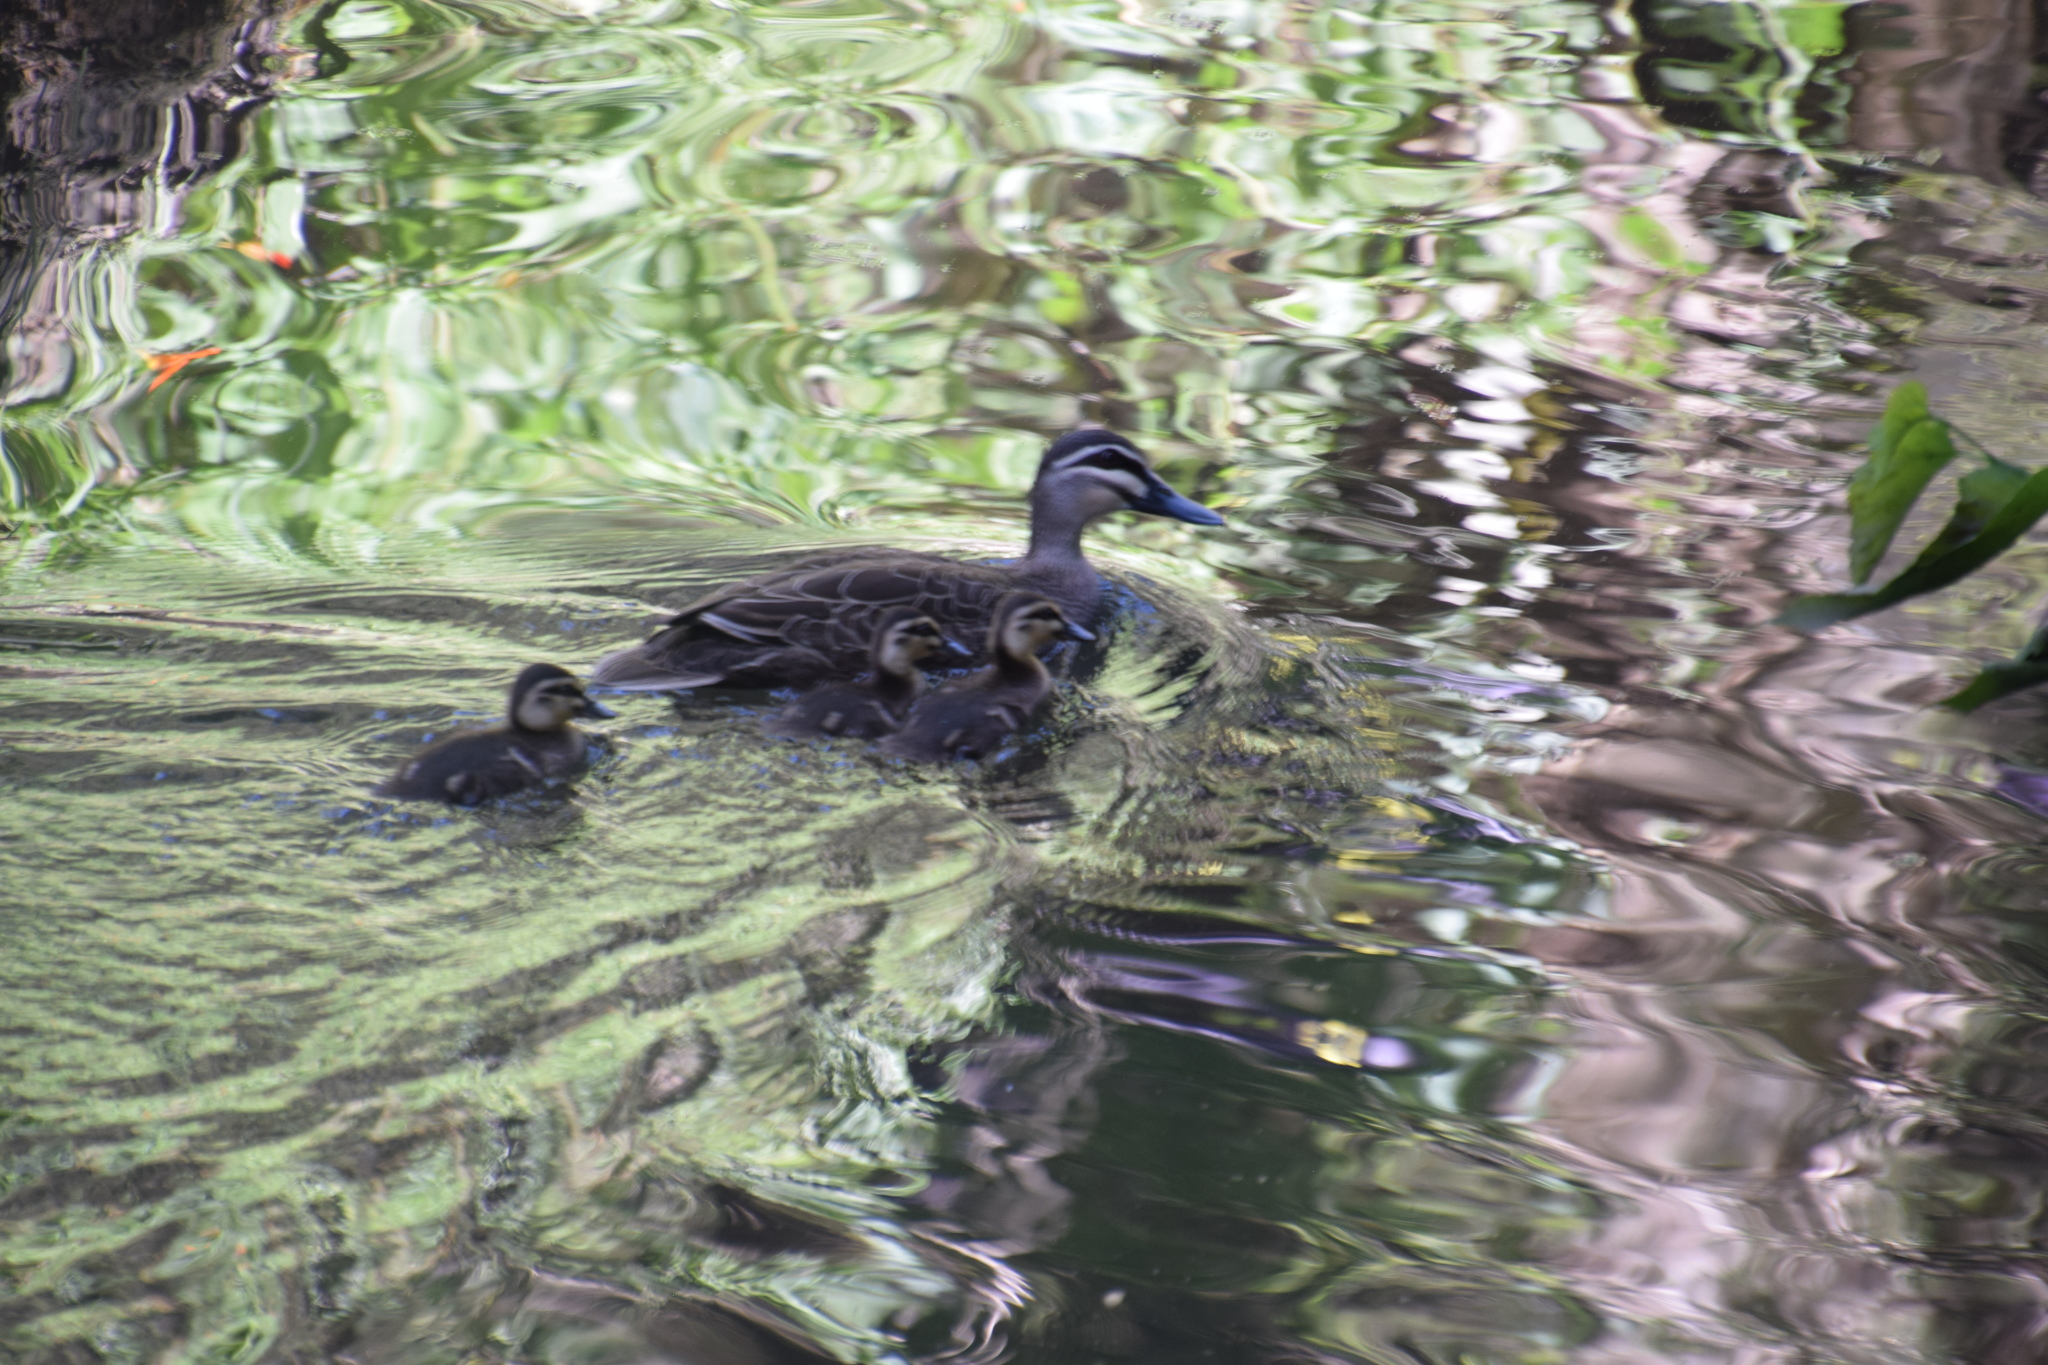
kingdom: Animalia
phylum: Chordata
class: Aves
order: Anseriformes
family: Anatidae
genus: Anas
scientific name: Anas superciliosa
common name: Pacific black duck
